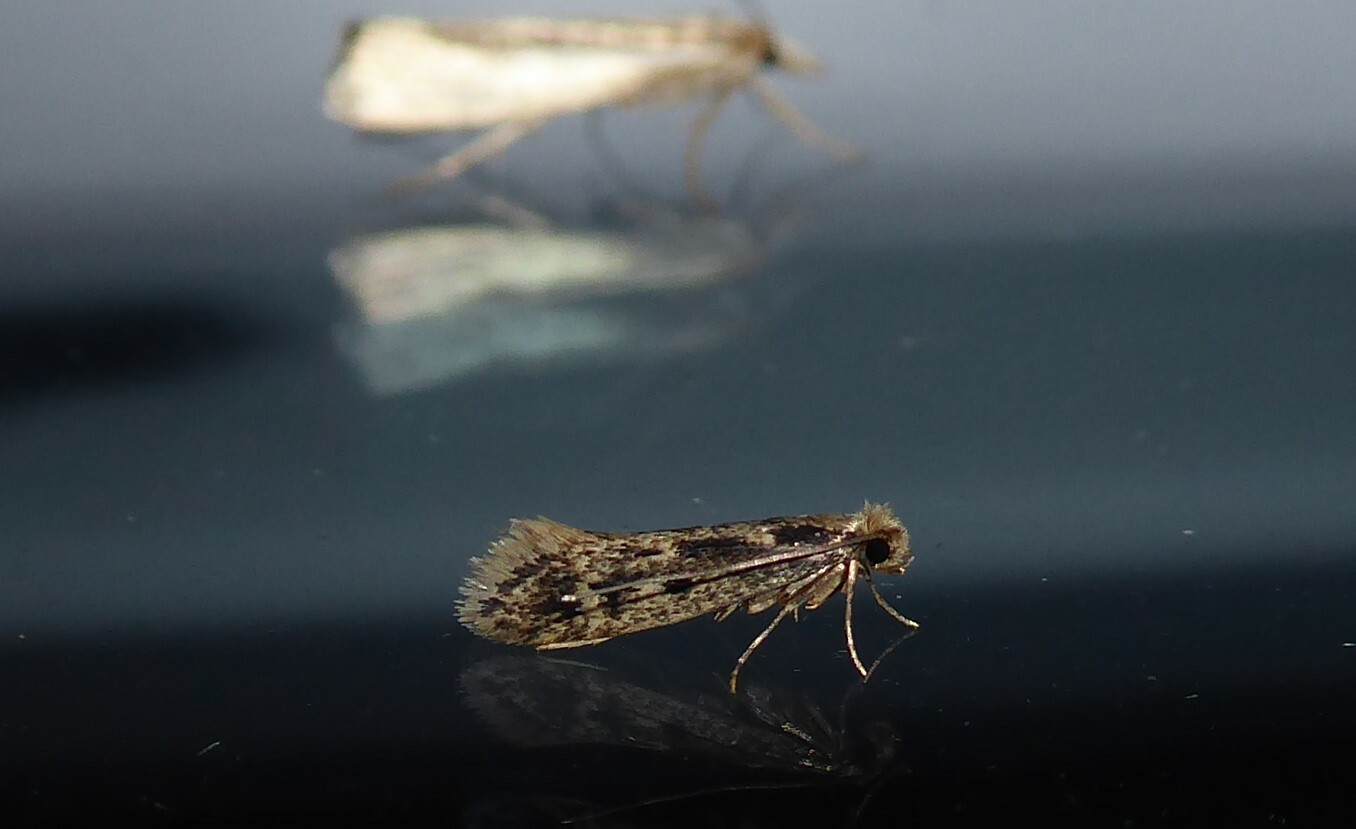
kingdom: Animalia
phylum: Arthropoda
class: Insecta
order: Lepidoptera
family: Tineidae
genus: Tinea
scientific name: Tinea pallescentella
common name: Large pale clothes moth
